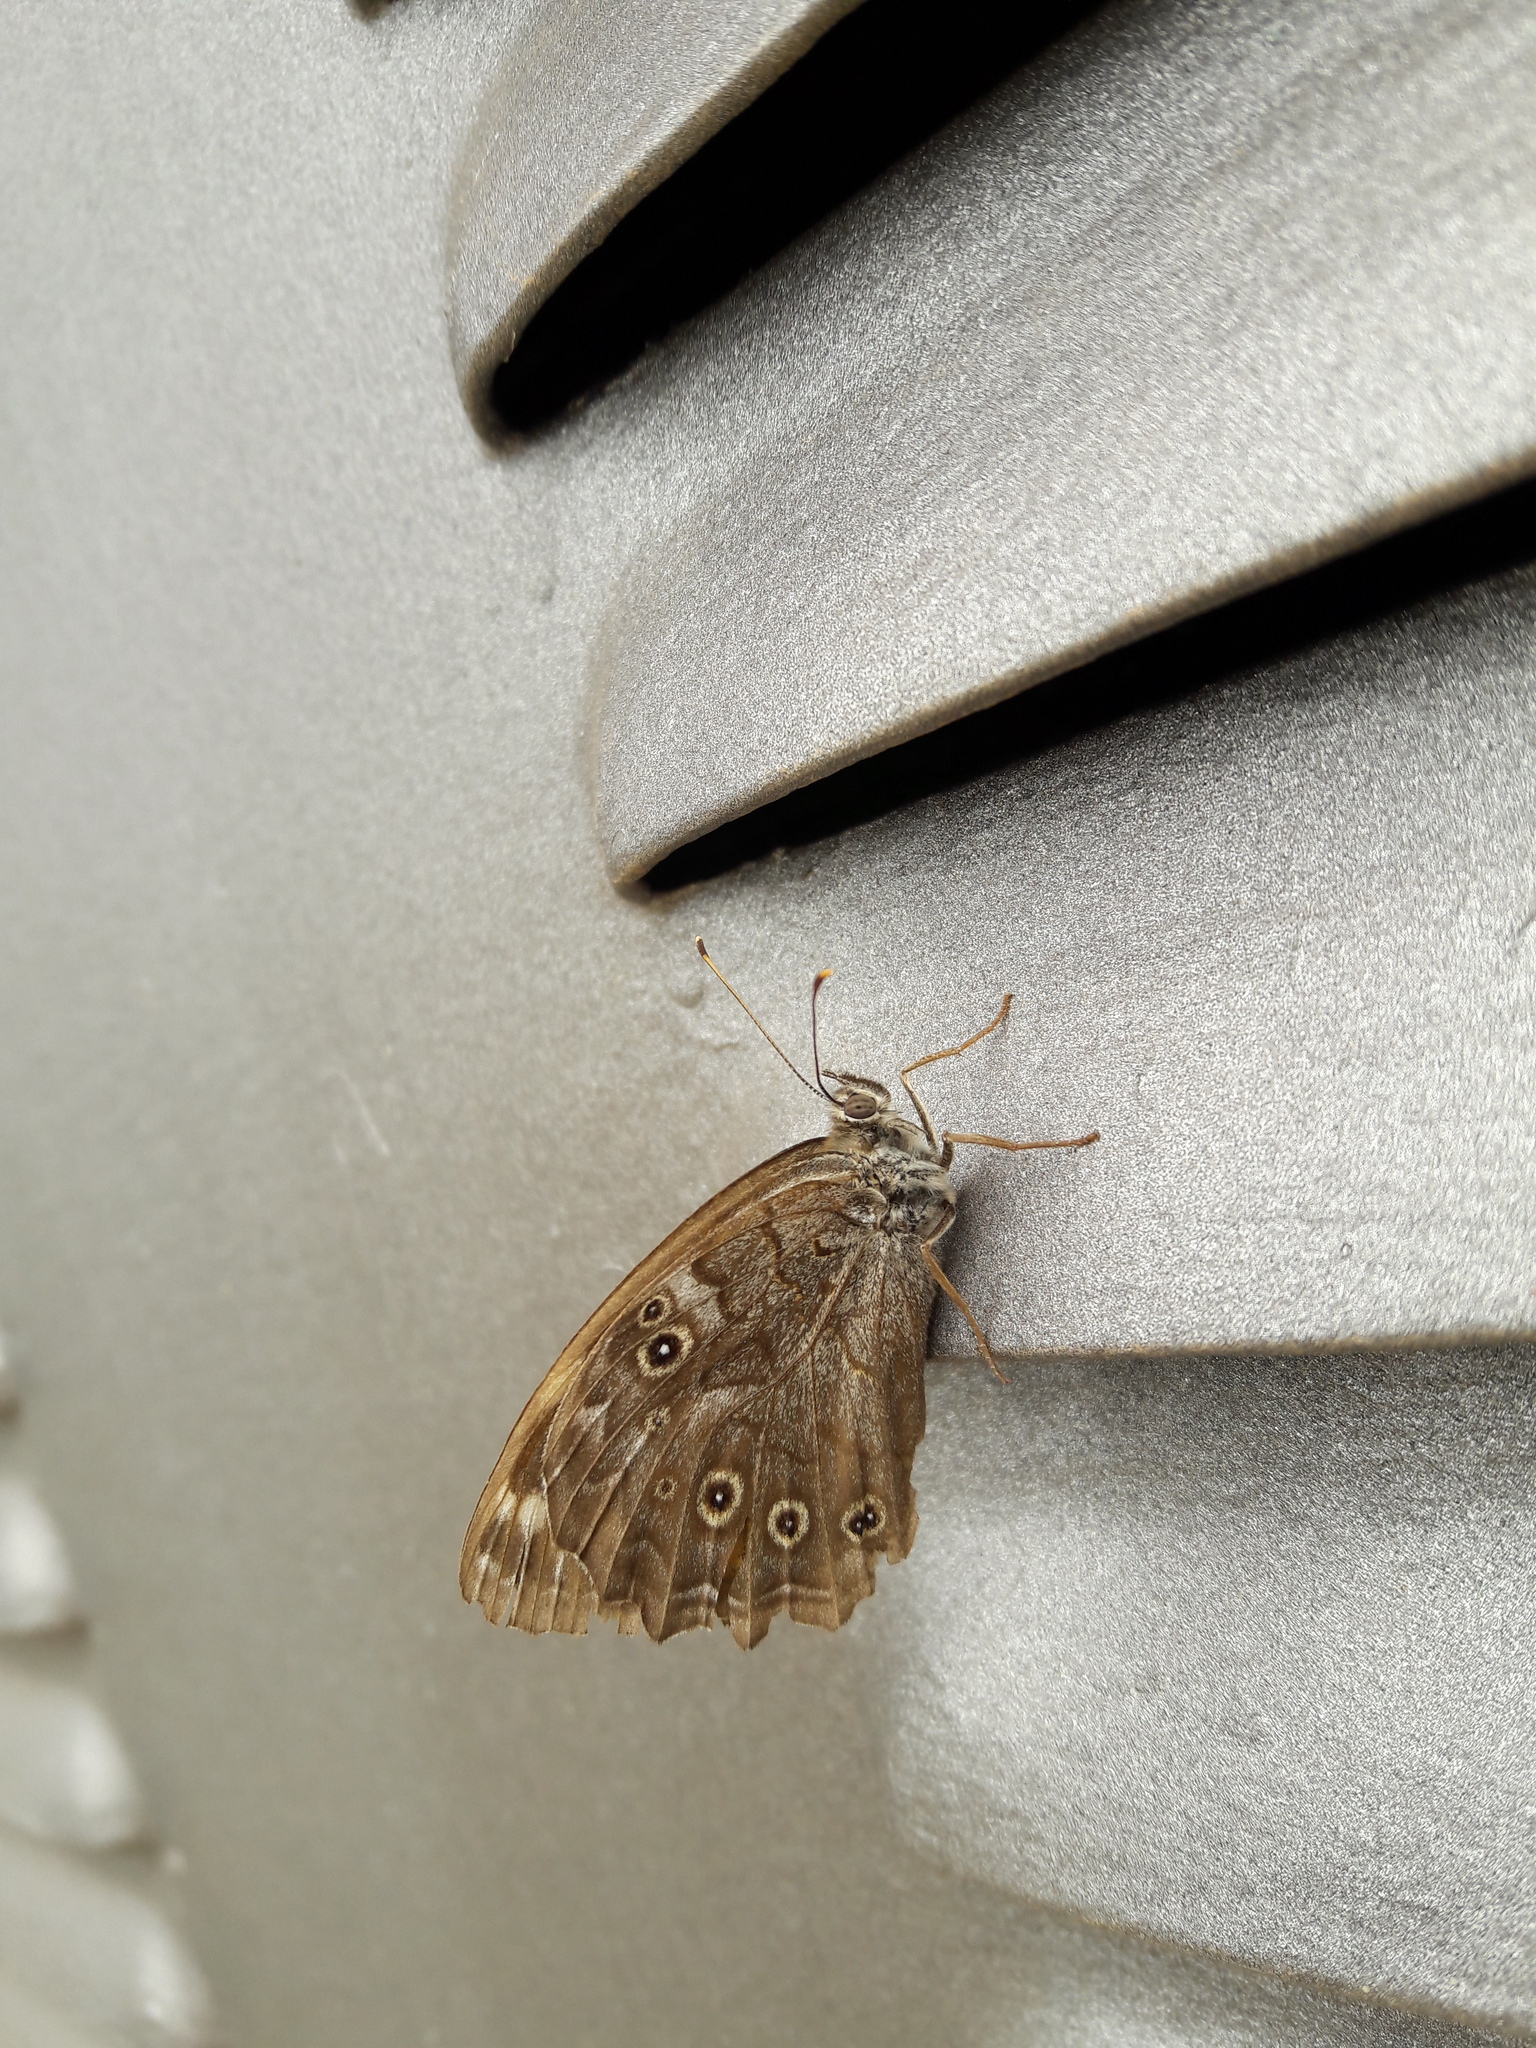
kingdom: Animalia
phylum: Arthropoda
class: Insecta
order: Lepidoptera
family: Nymphalidae
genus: Kirinia
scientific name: Kirinia roxelana
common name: Lattice brown
